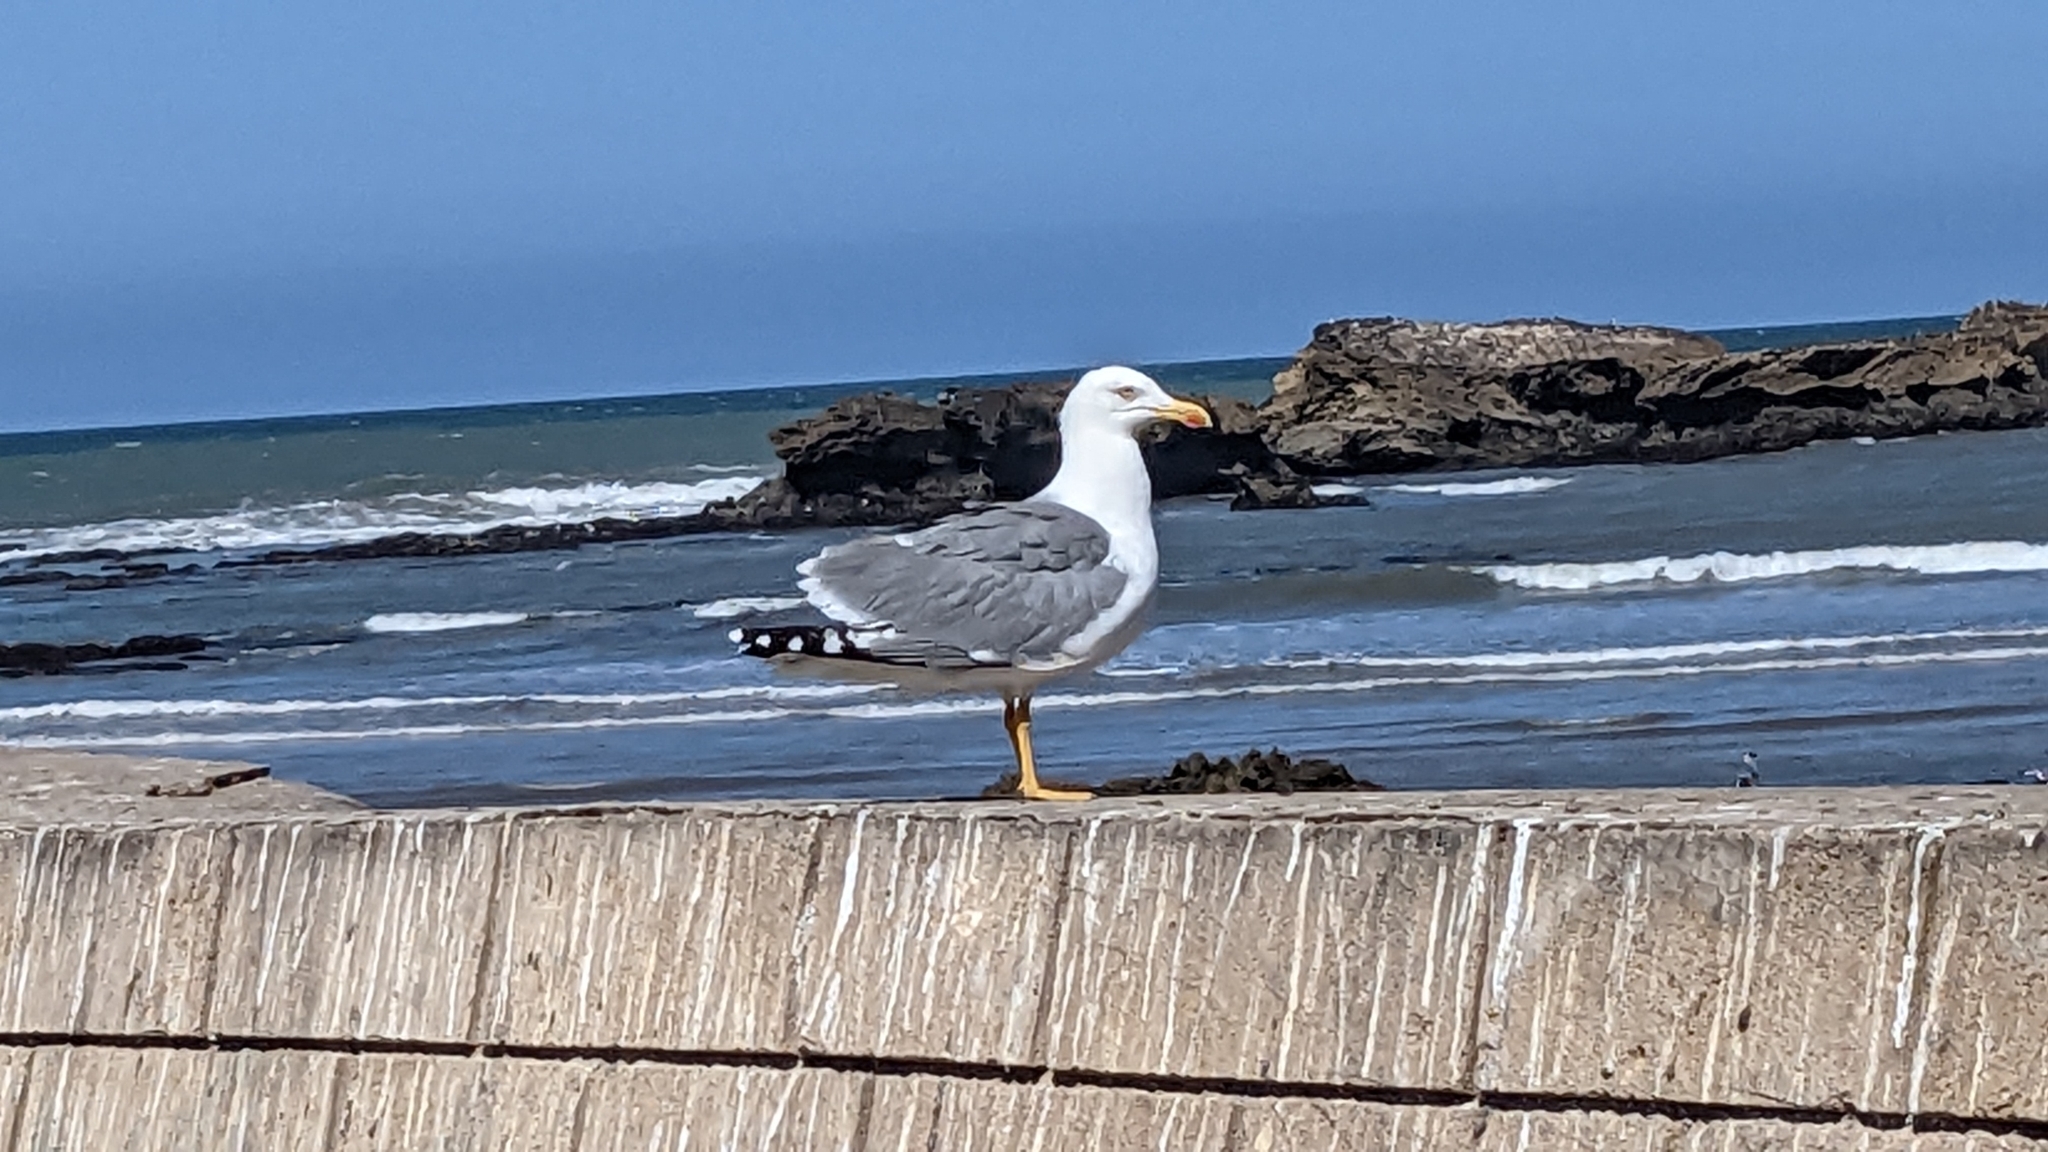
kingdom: Animalia
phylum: Chordata
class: Aves
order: Charadriiformes
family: Laridae
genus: Larus
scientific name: Larus michahellis
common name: Yellow-legged gull
